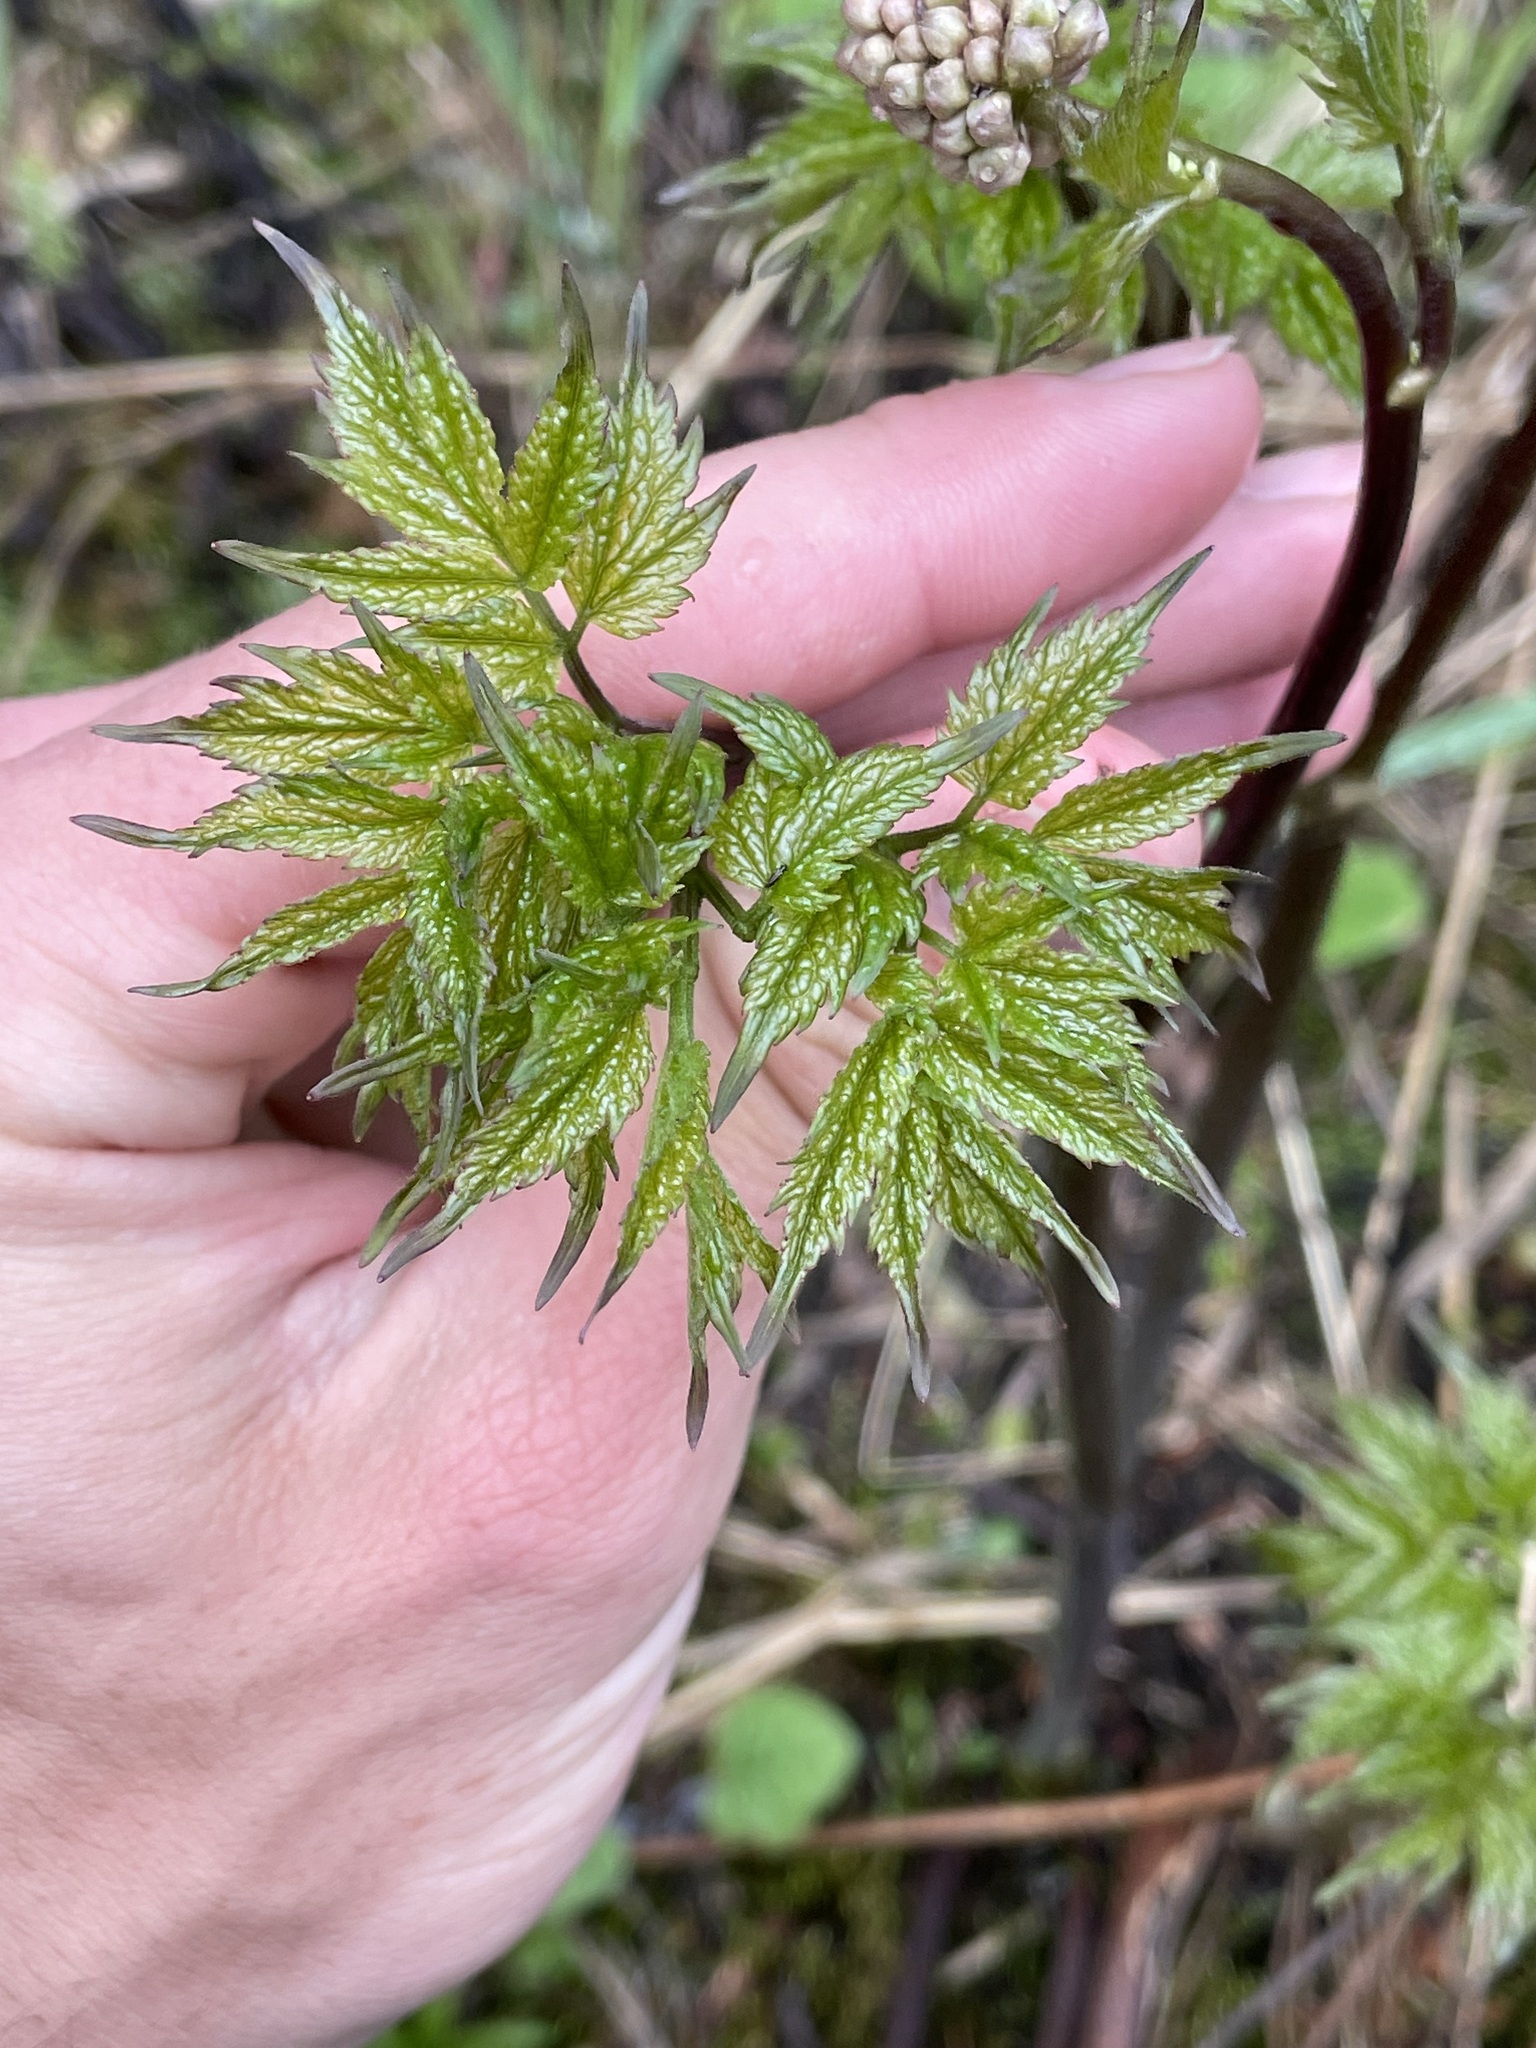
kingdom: Plantae
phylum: Tracheophyta
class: Magnoliopsida
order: Ranunculales
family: Ranunculaceae
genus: Actaea
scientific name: Actaea rubra
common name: Red baneberry
